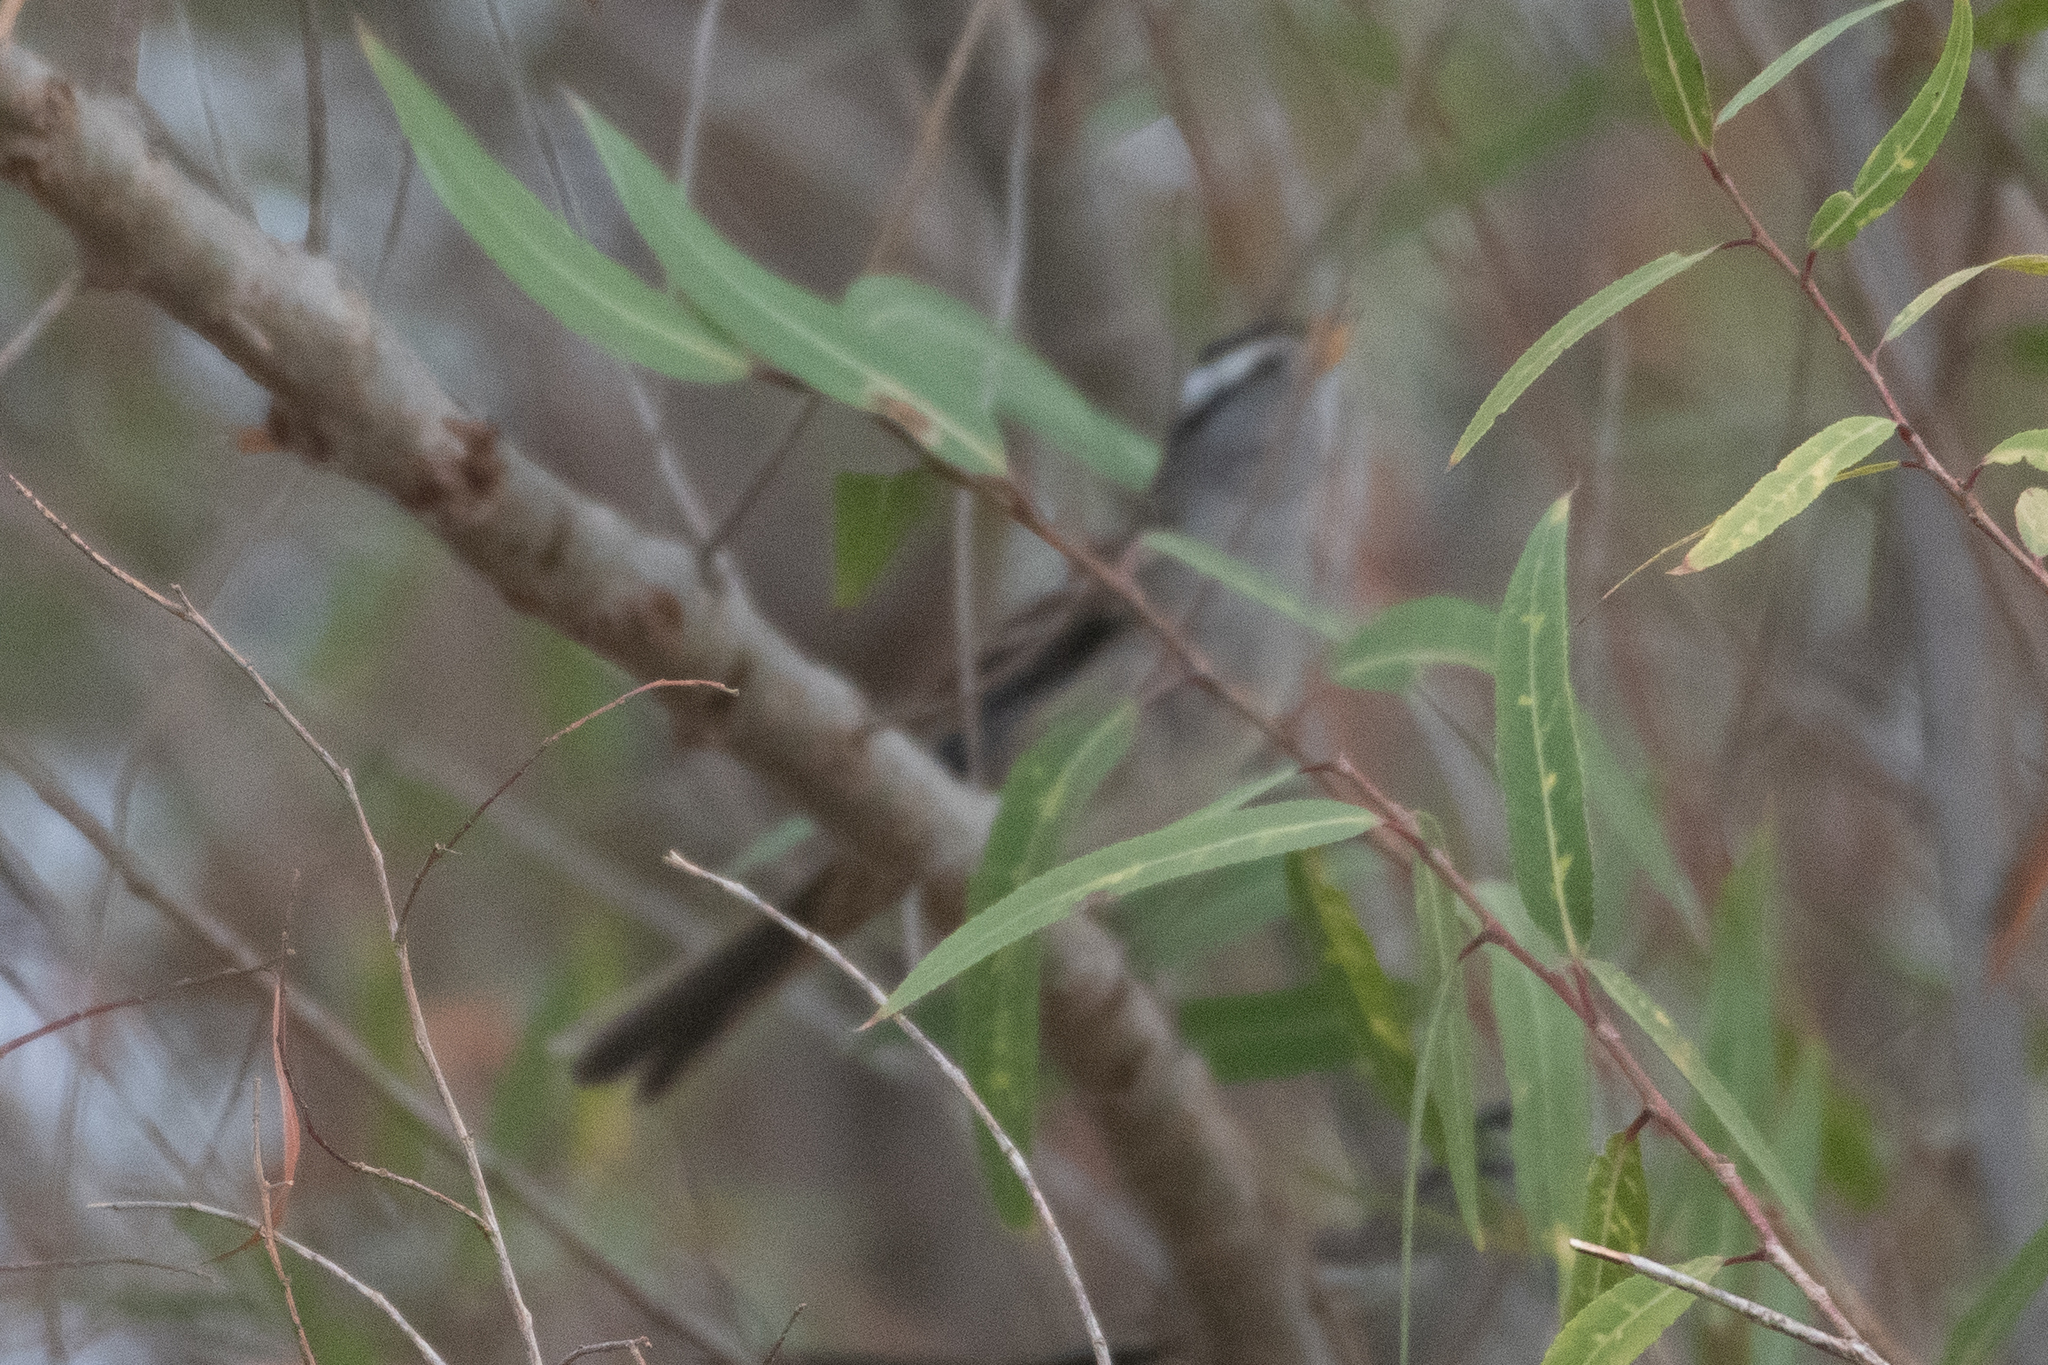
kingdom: Animalia
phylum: Chordata
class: Aves
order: Passeriformes
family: Passerellidae
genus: Zonotrichia
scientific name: Zonotrichia leucophrys
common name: White-crowned sparrow
